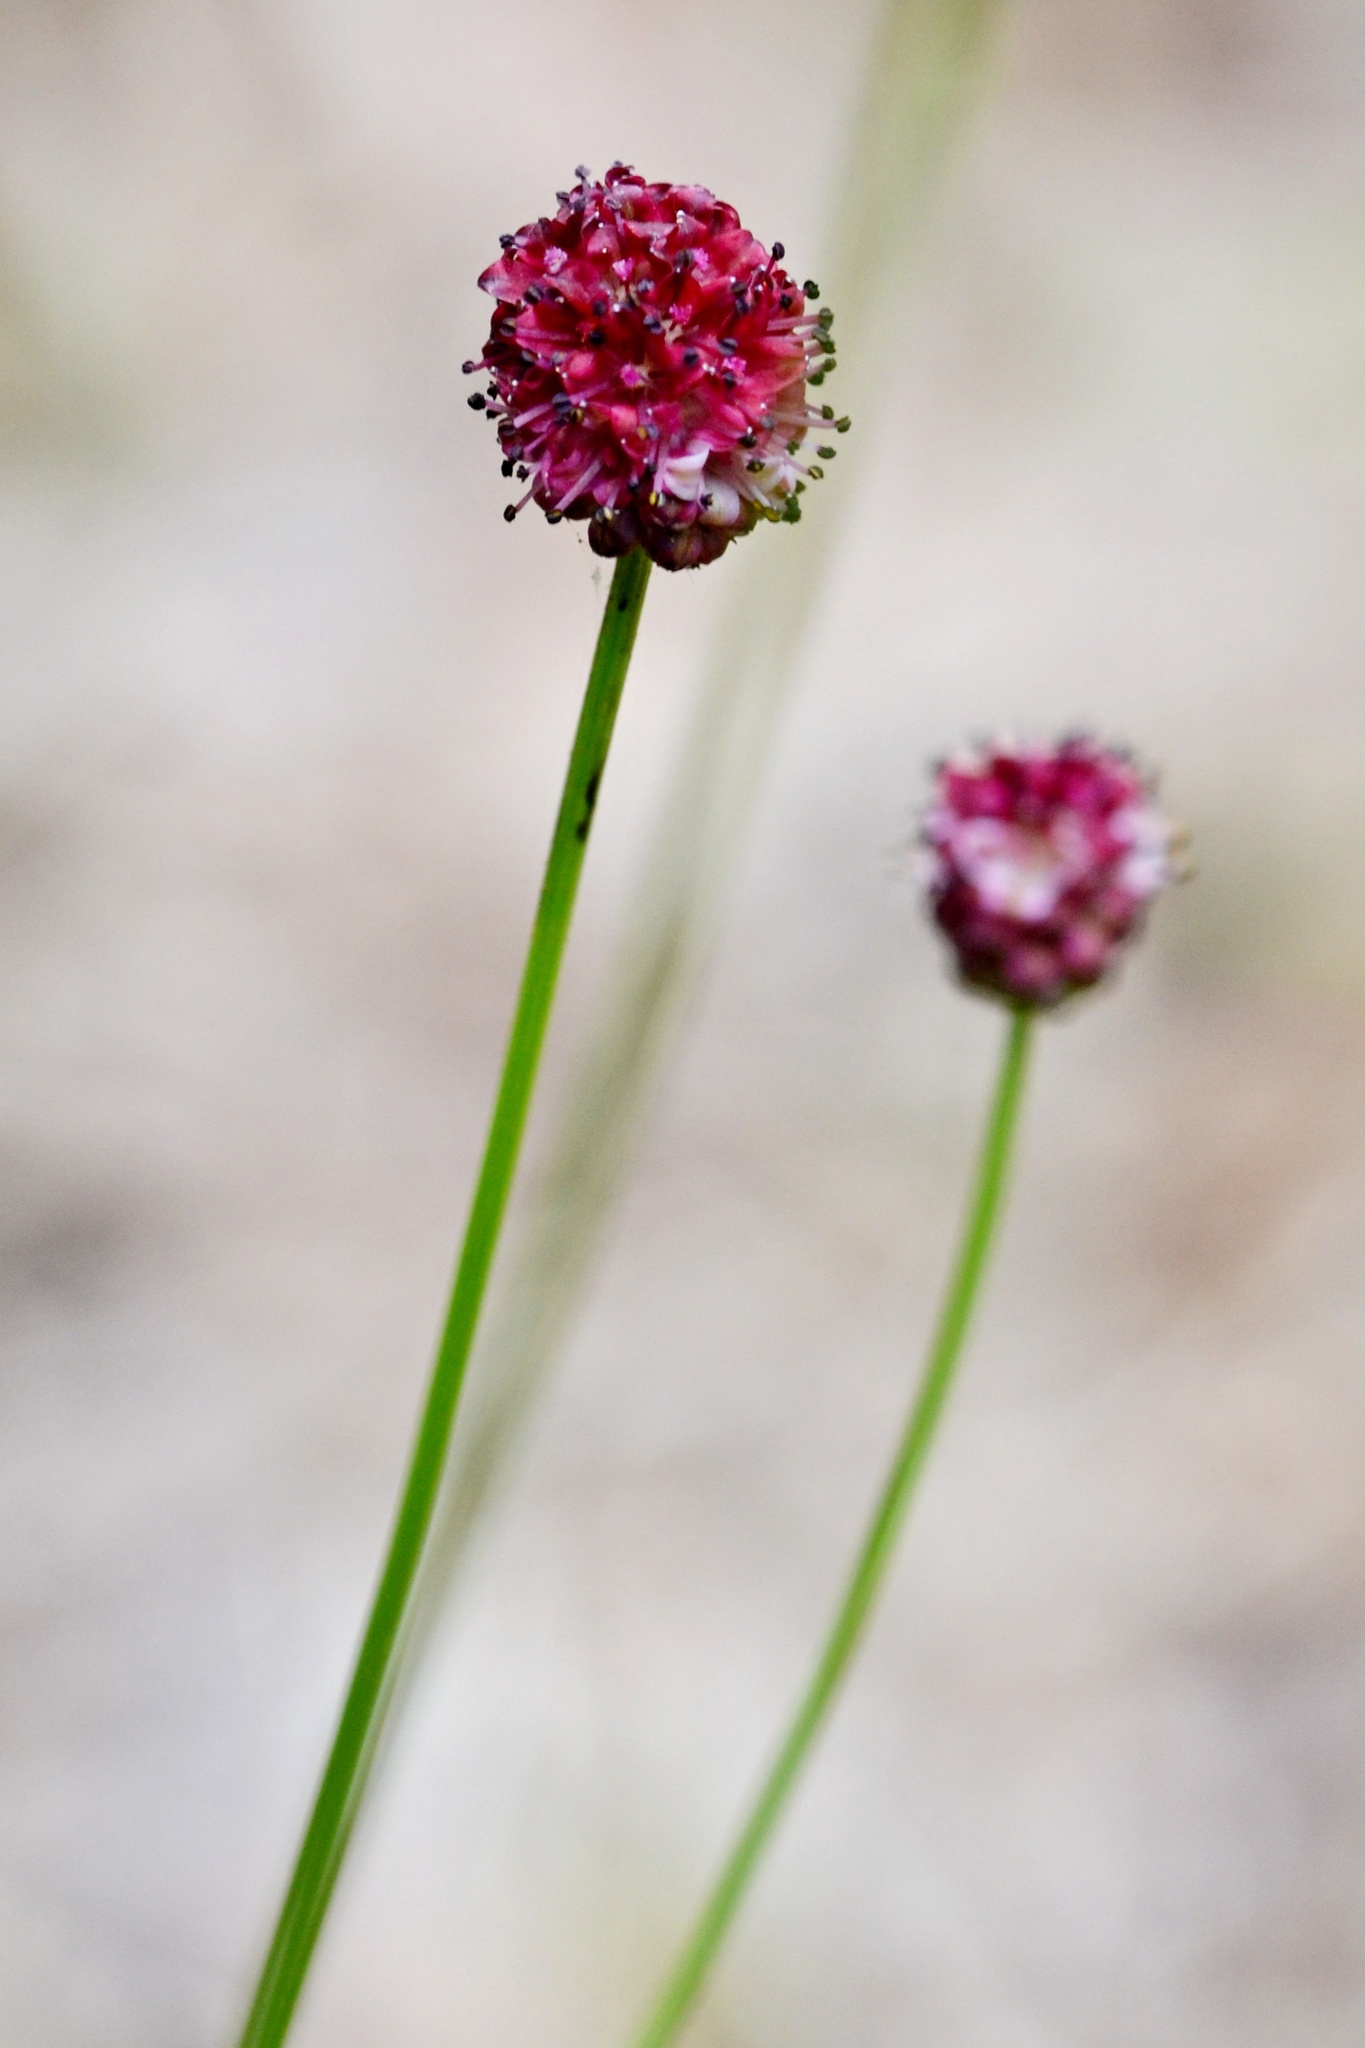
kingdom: Plantae
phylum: Tracheophyta
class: Magnoliopsida
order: Rosales
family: Rosaceae
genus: Sanguisorba
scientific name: Sanguisorba officinalis
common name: Great burnet
